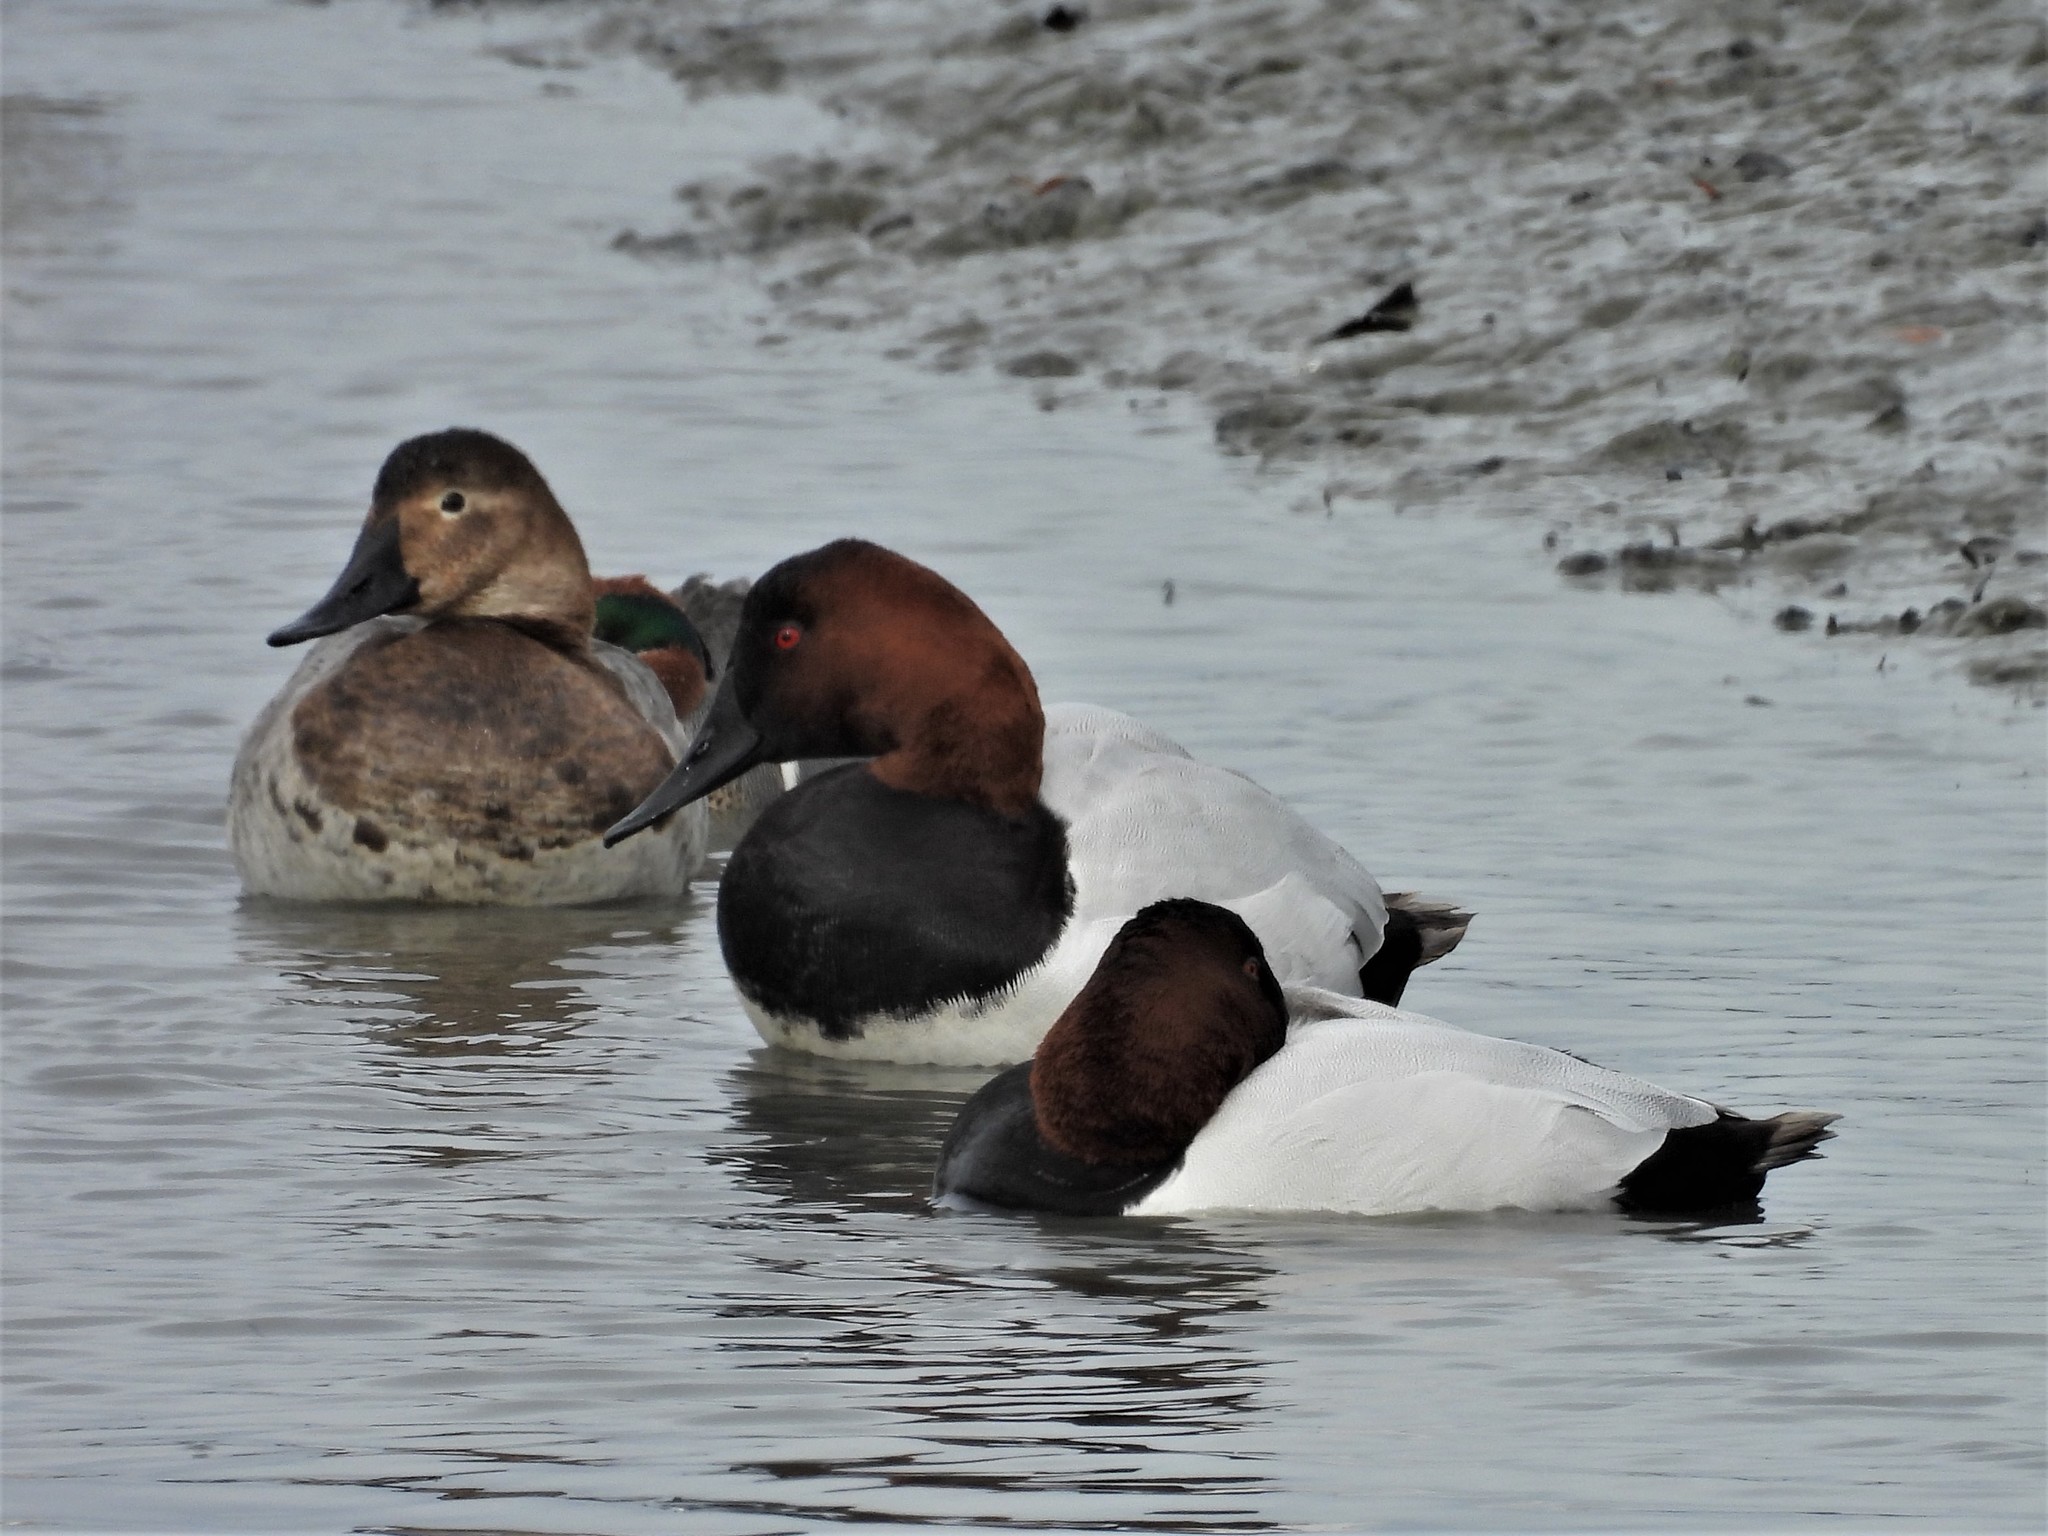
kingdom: Animalia
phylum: Chordata
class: Aves
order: Anseriformes
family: Anatidae
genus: Aythya
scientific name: Aythya valisineria
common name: Canvasback
